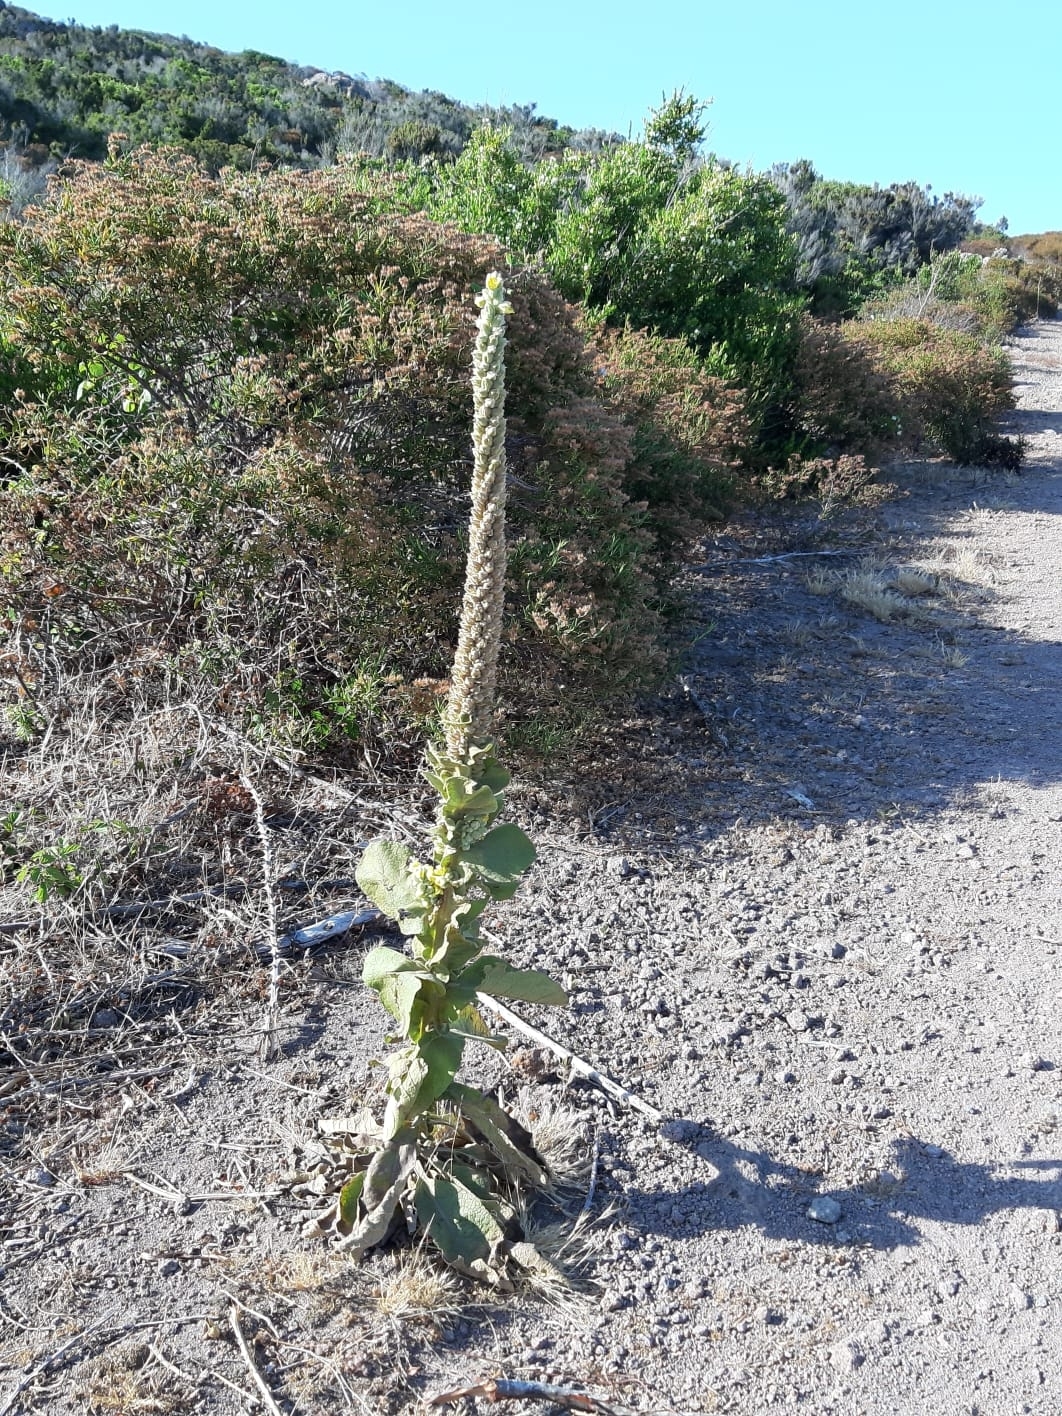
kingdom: Plantae
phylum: Tracheophyta
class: Magnoliopsida
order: Lamiales
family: Scrophulariaceae
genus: Verbascum
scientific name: Verbascum thapsus
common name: Common mullein
